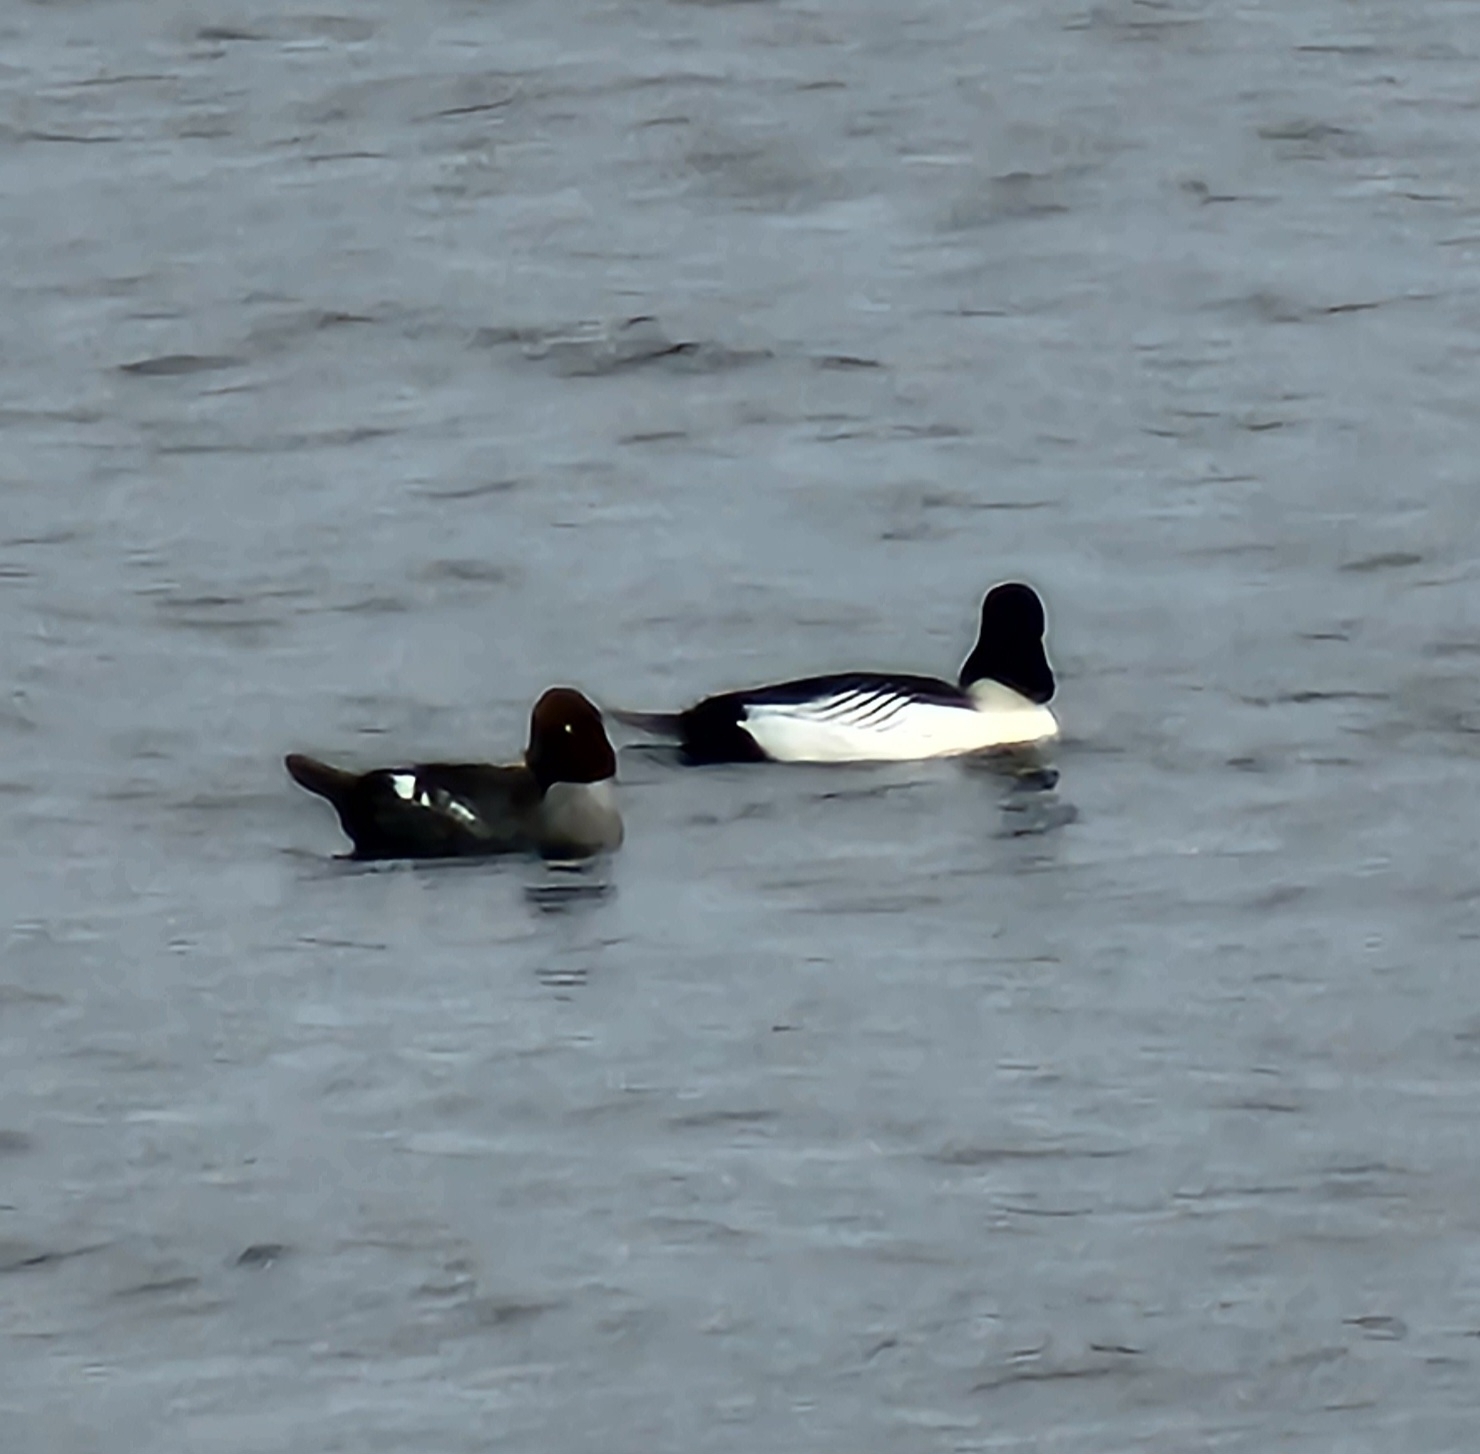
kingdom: Animalia
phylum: Chordata
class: Aves
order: Anseriformes
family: Anatidae
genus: Bucephala
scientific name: Bucephala clangula
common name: Common goldeneye
